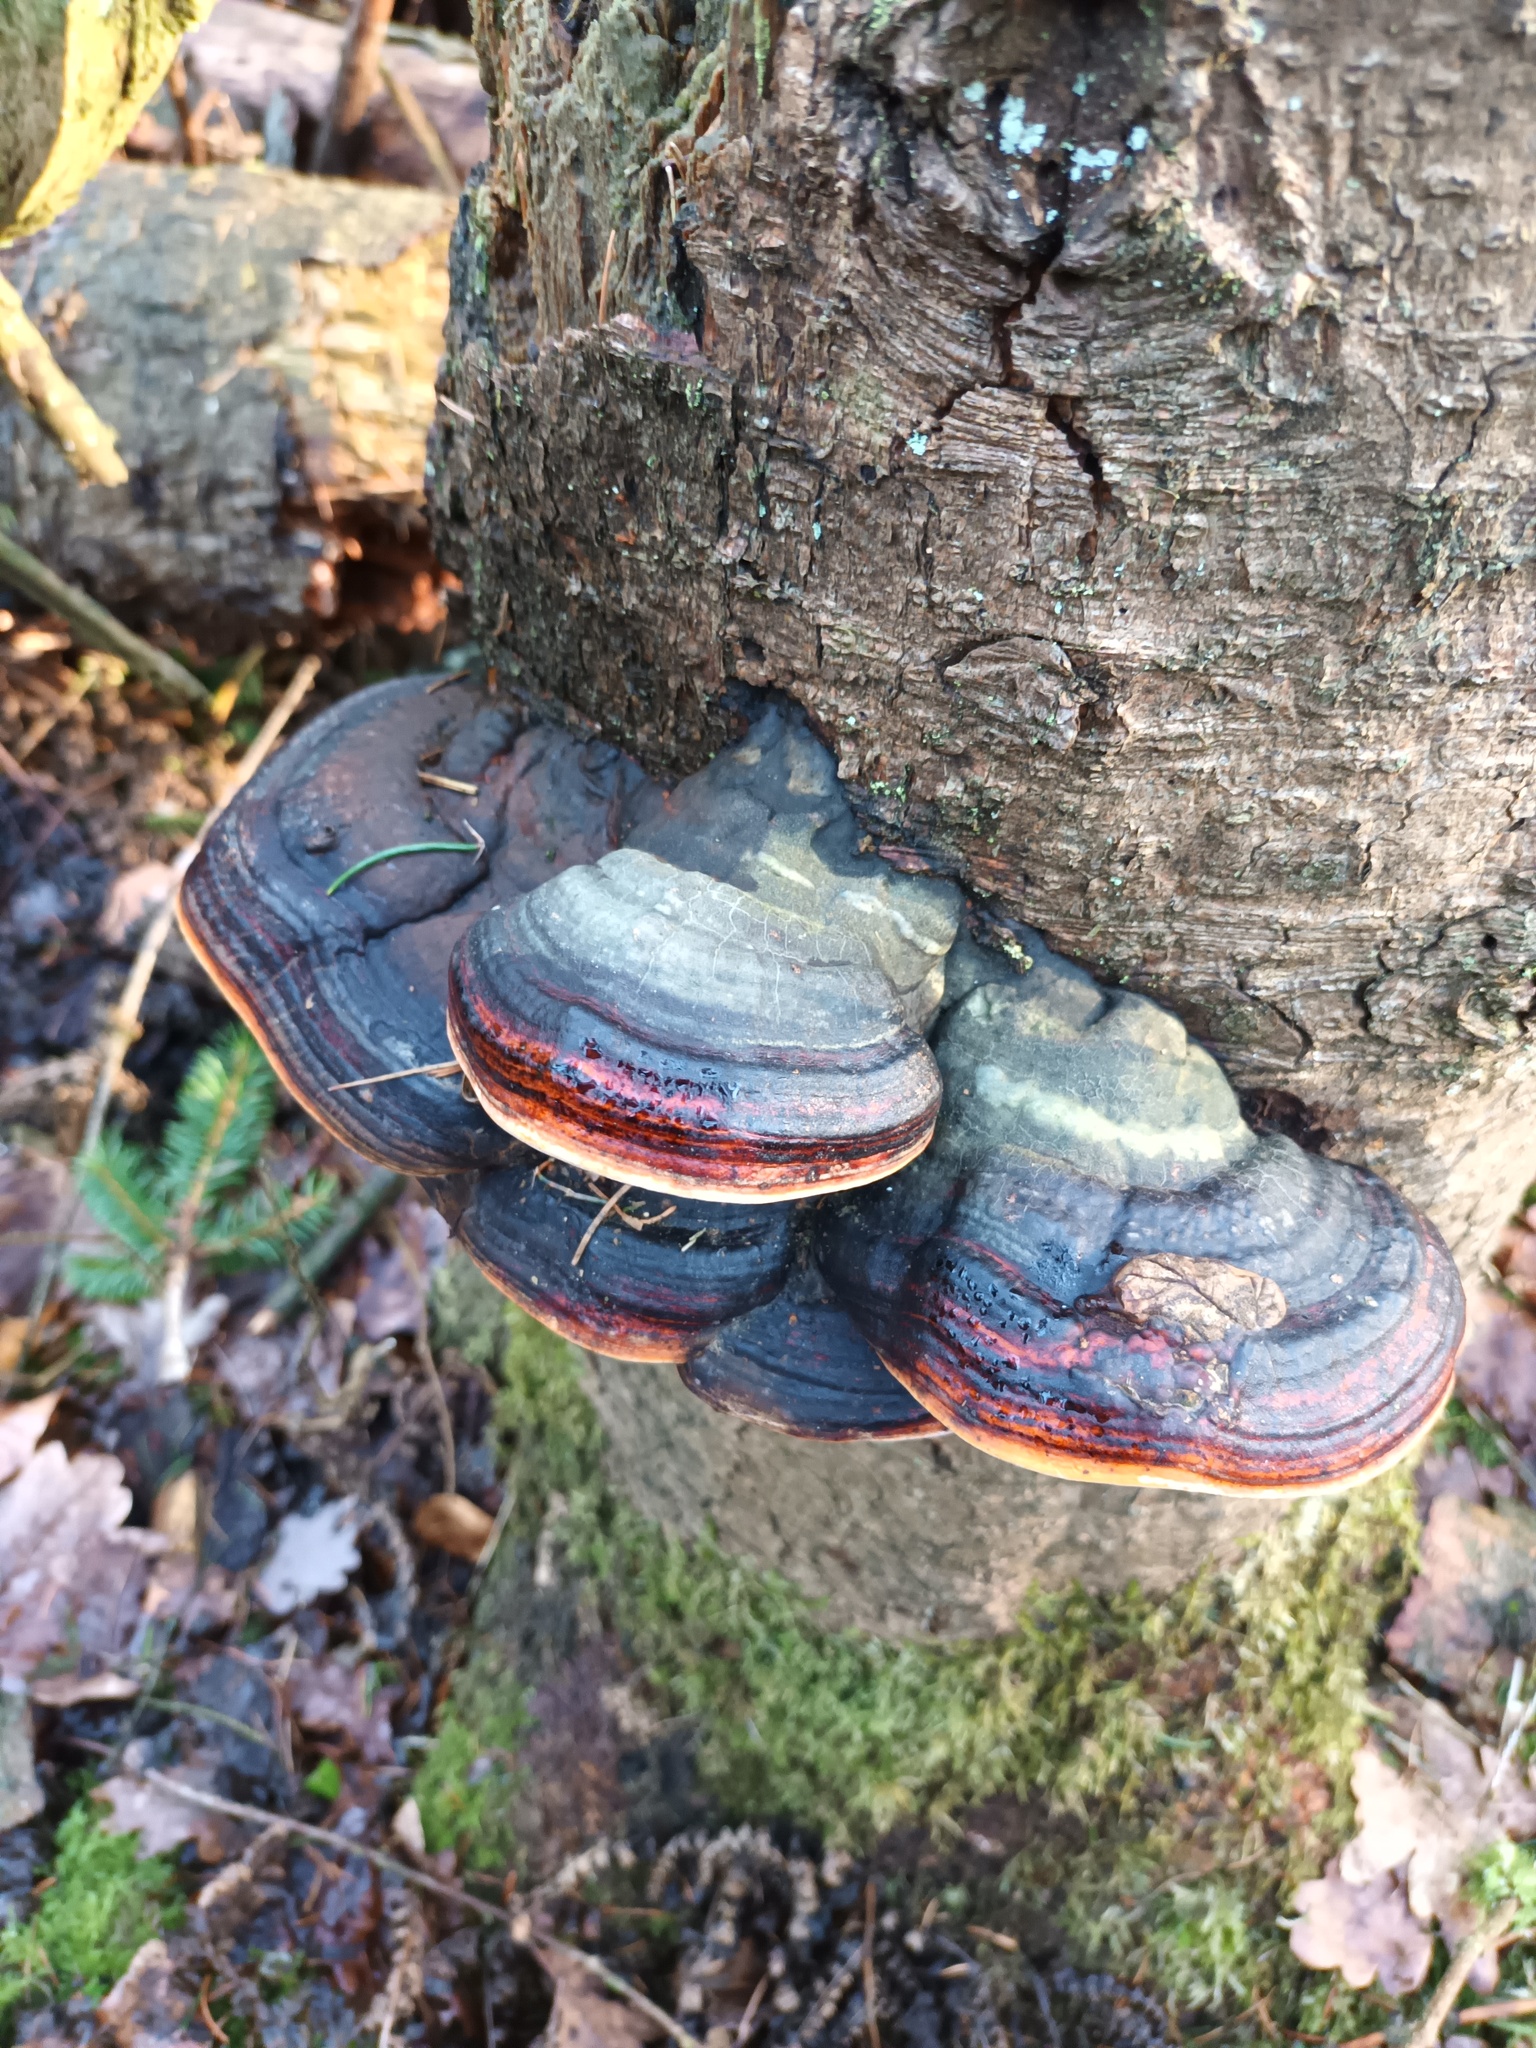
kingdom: Fungi
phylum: Basidiomycota
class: Agaricomycetes
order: Polyporales
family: Fomitopsidaceae
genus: Fomitopsis
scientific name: Fomitopsis pinicola
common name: Red-belted bracket
